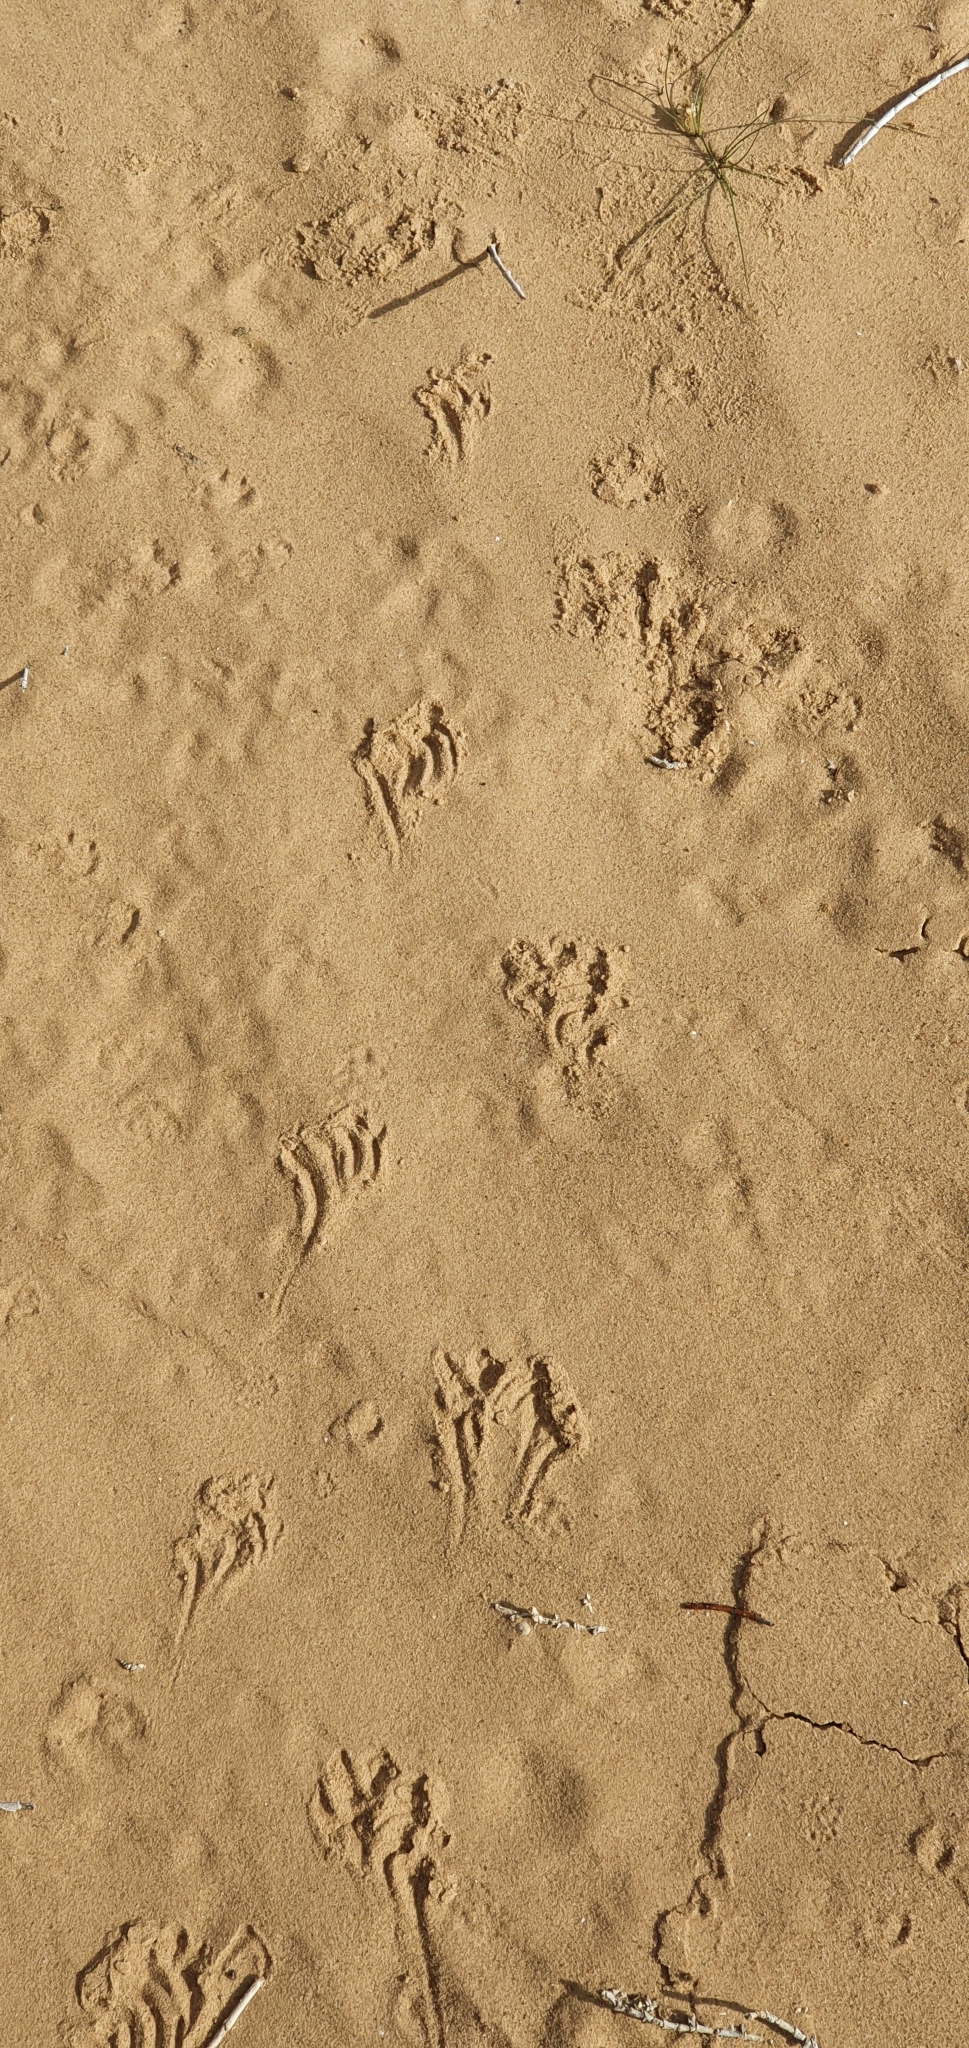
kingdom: Animalia
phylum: Chordata
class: Squamata
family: Chamaeleonidae
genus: Chamaeleo
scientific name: Chamaeleo chamaeleon
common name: Mediterranean chameleon
